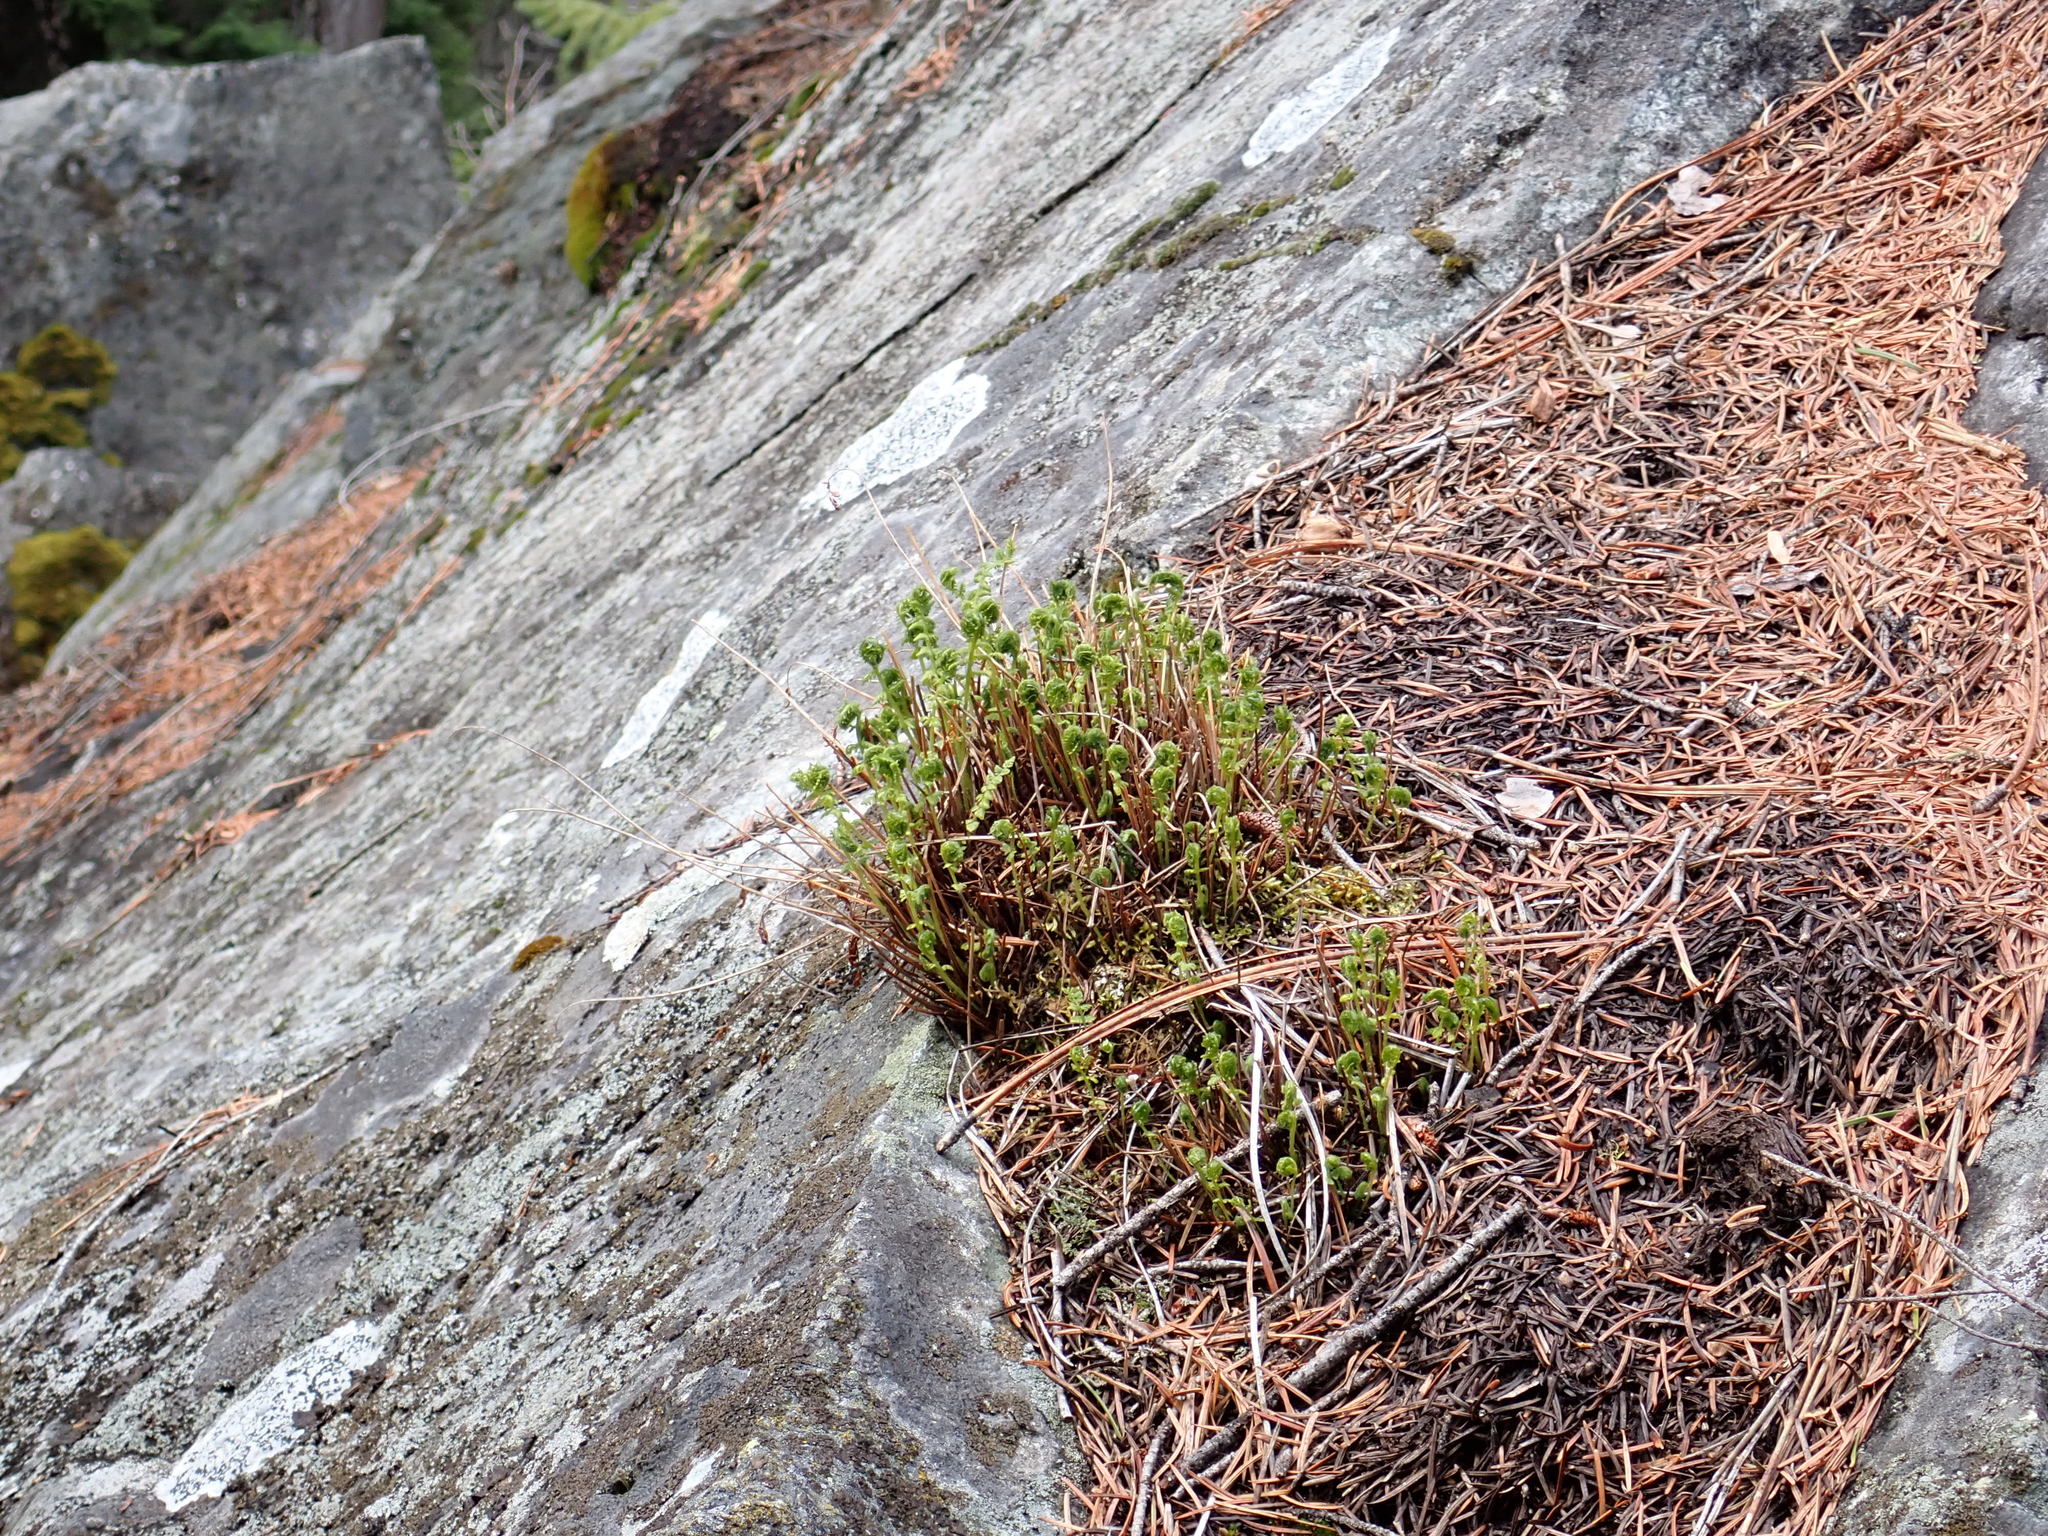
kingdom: Plantae
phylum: Tracheophyta
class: Polypodiopsida
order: Polypodiales
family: Woodsiaceae
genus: Physematium
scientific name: Physematium scopulinum
